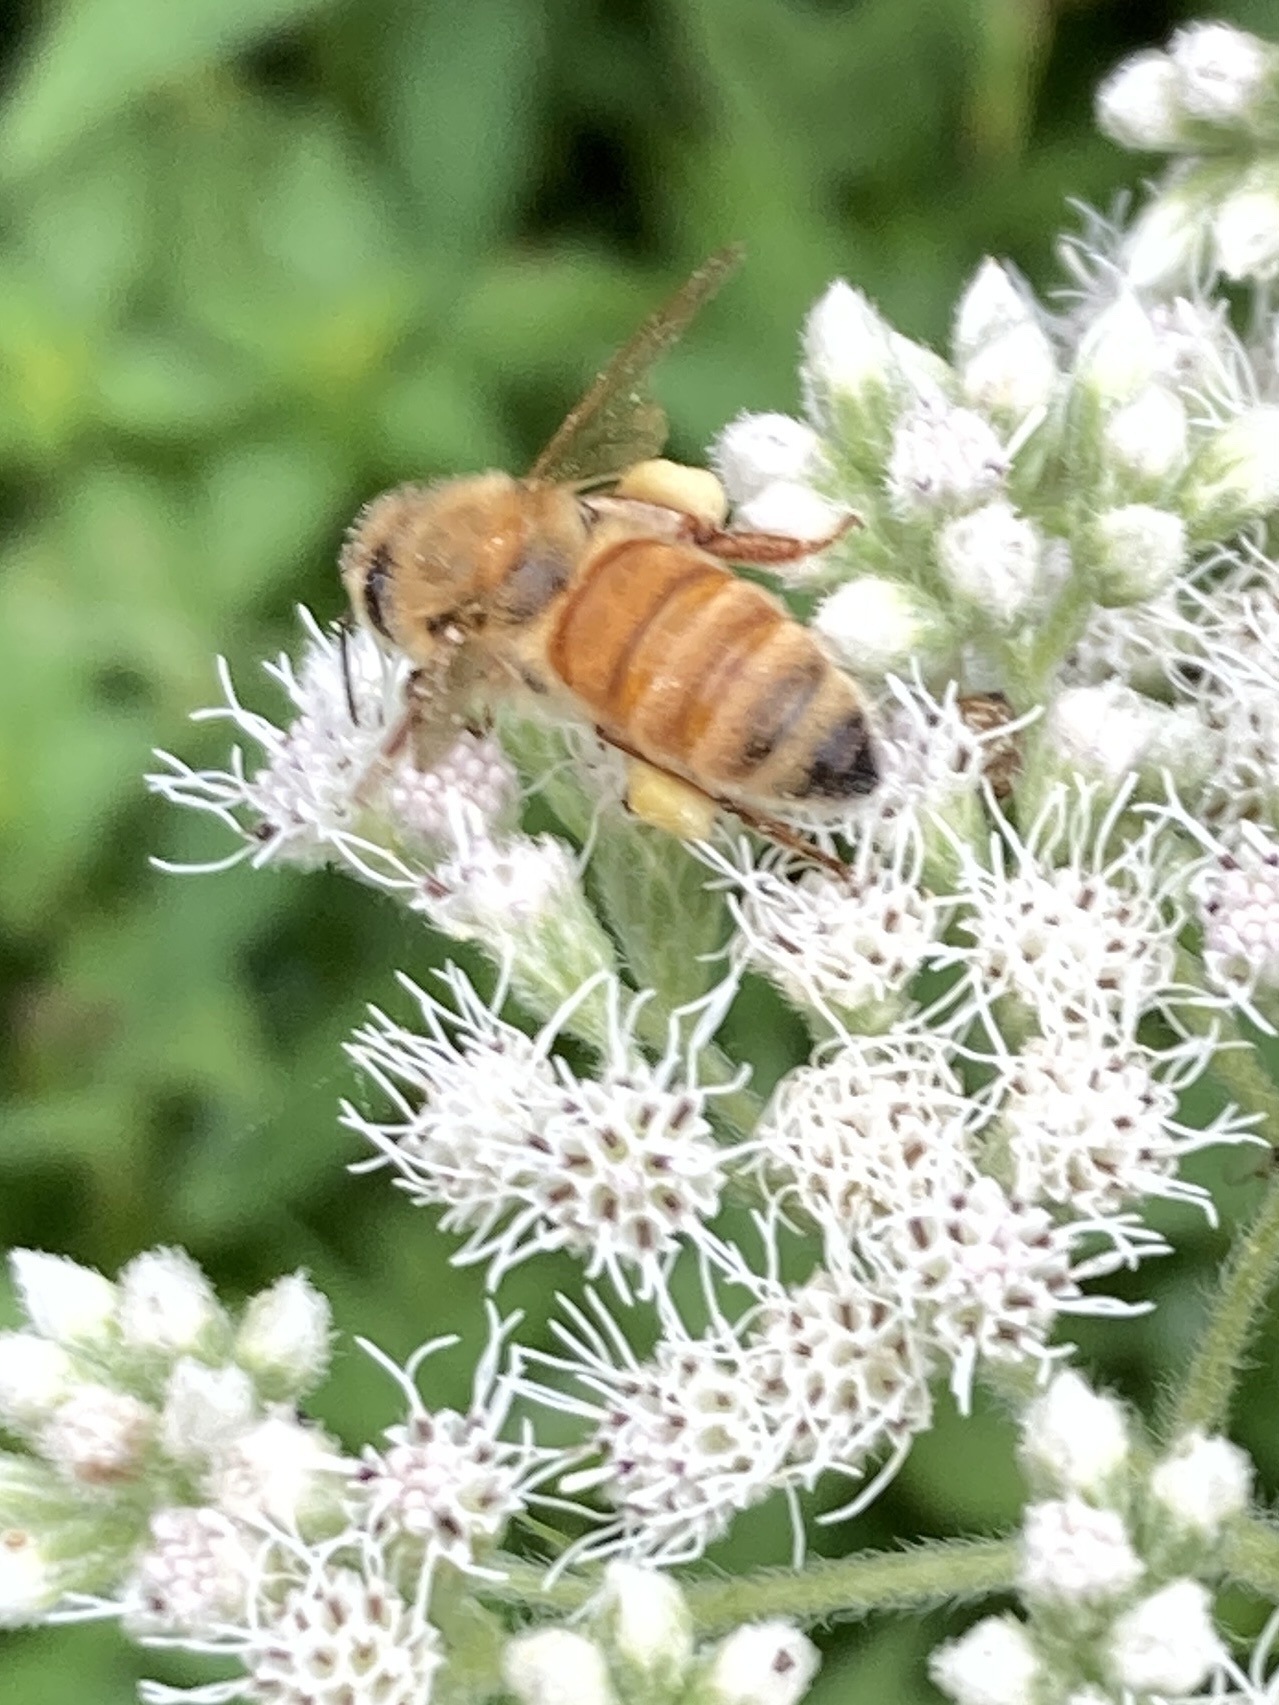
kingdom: Animalia
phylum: Arthropoda
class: Insecta
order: Hymenoptera
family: Apidae
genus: Apis
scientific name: Apis mellifera
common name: Honey bee
